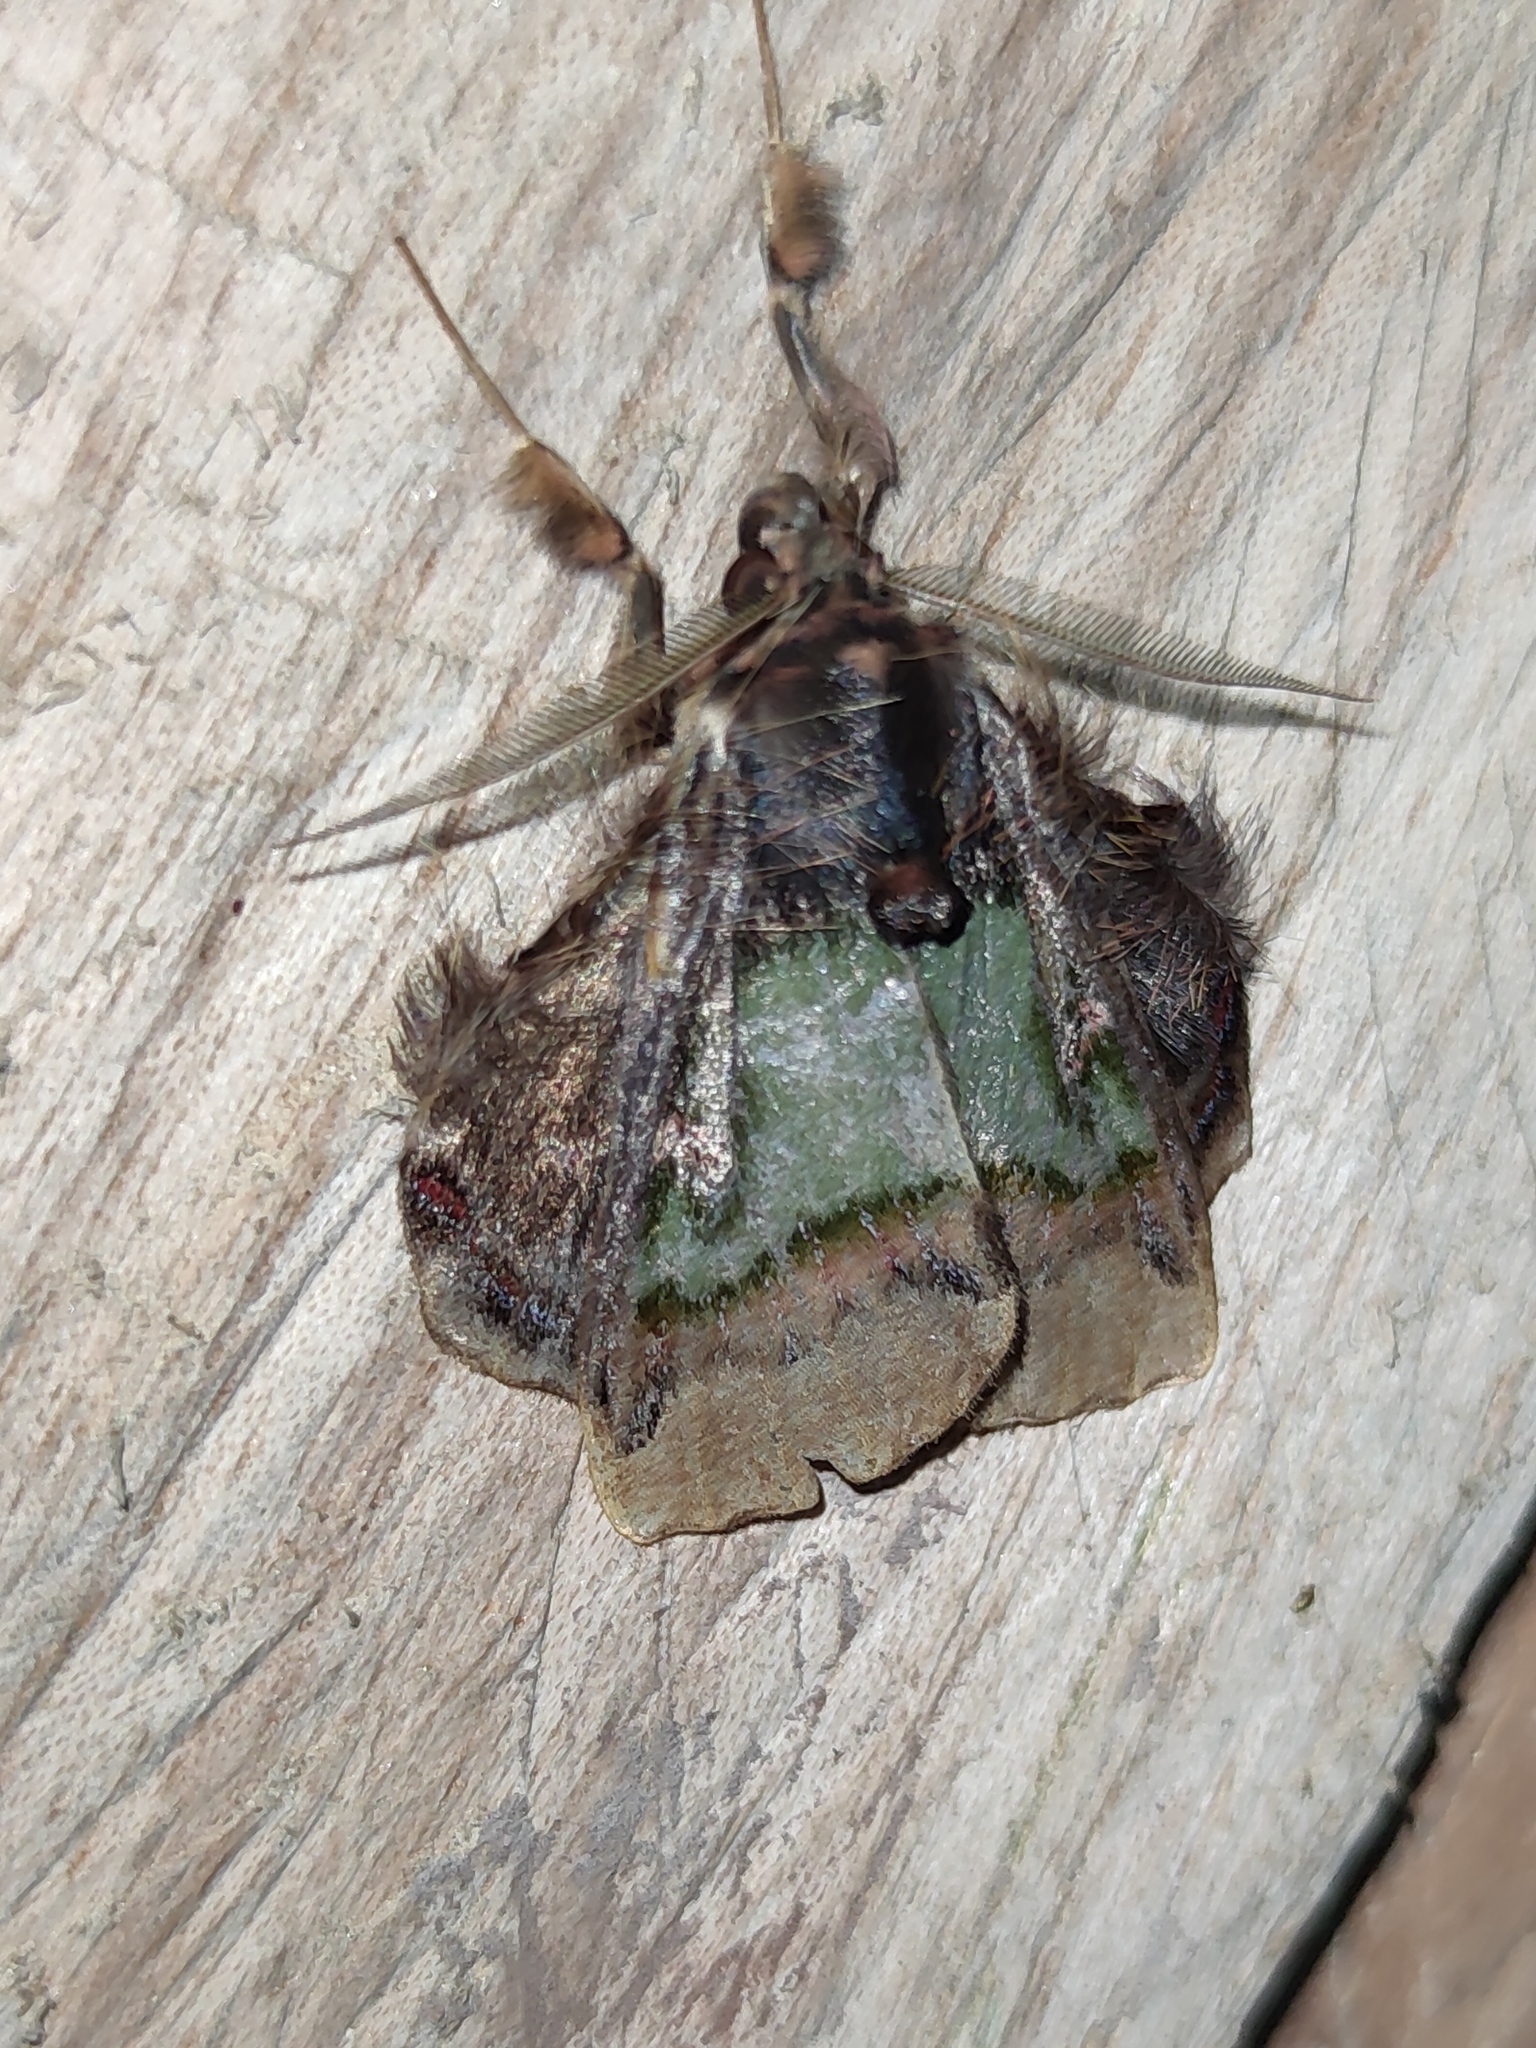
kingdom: Animalia
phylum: Arthropoda
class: Insecta
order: Lepidoptera
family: Erebidae
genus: Ceroctena
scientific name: Ceroctena amynta
